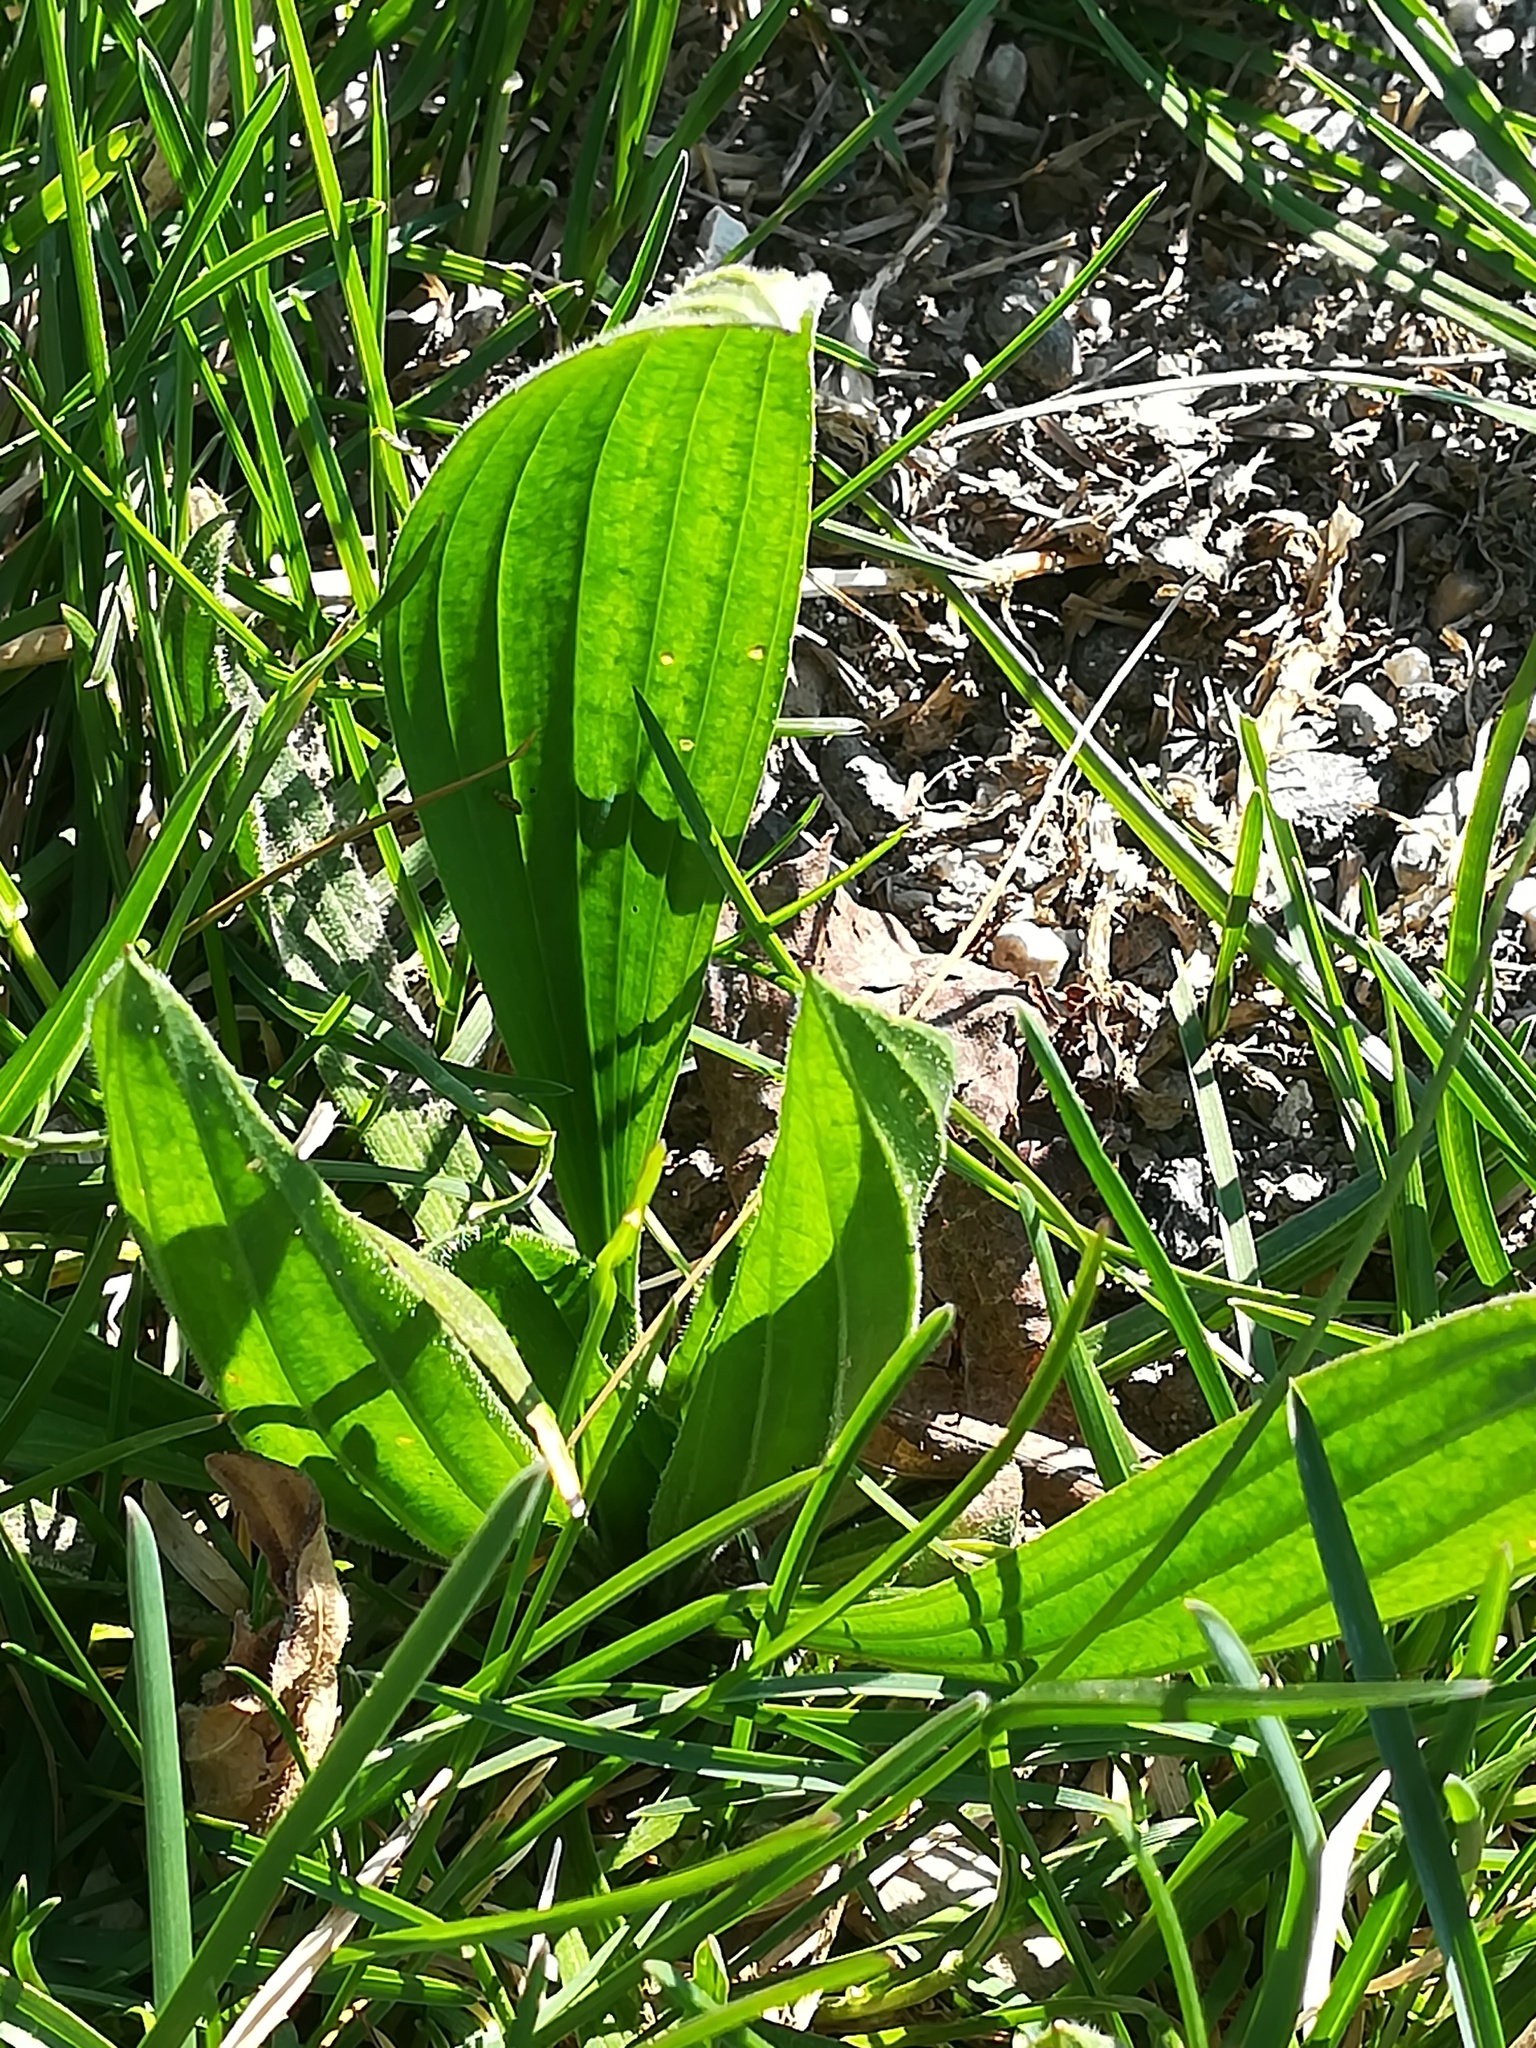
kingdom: Plantae
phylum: Tracheophyta
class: Magnoliopsida
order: Lamiales
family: Plantaginaceae
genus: Plantago
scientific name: Plantago lanceolata
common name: Ribwort plantain
